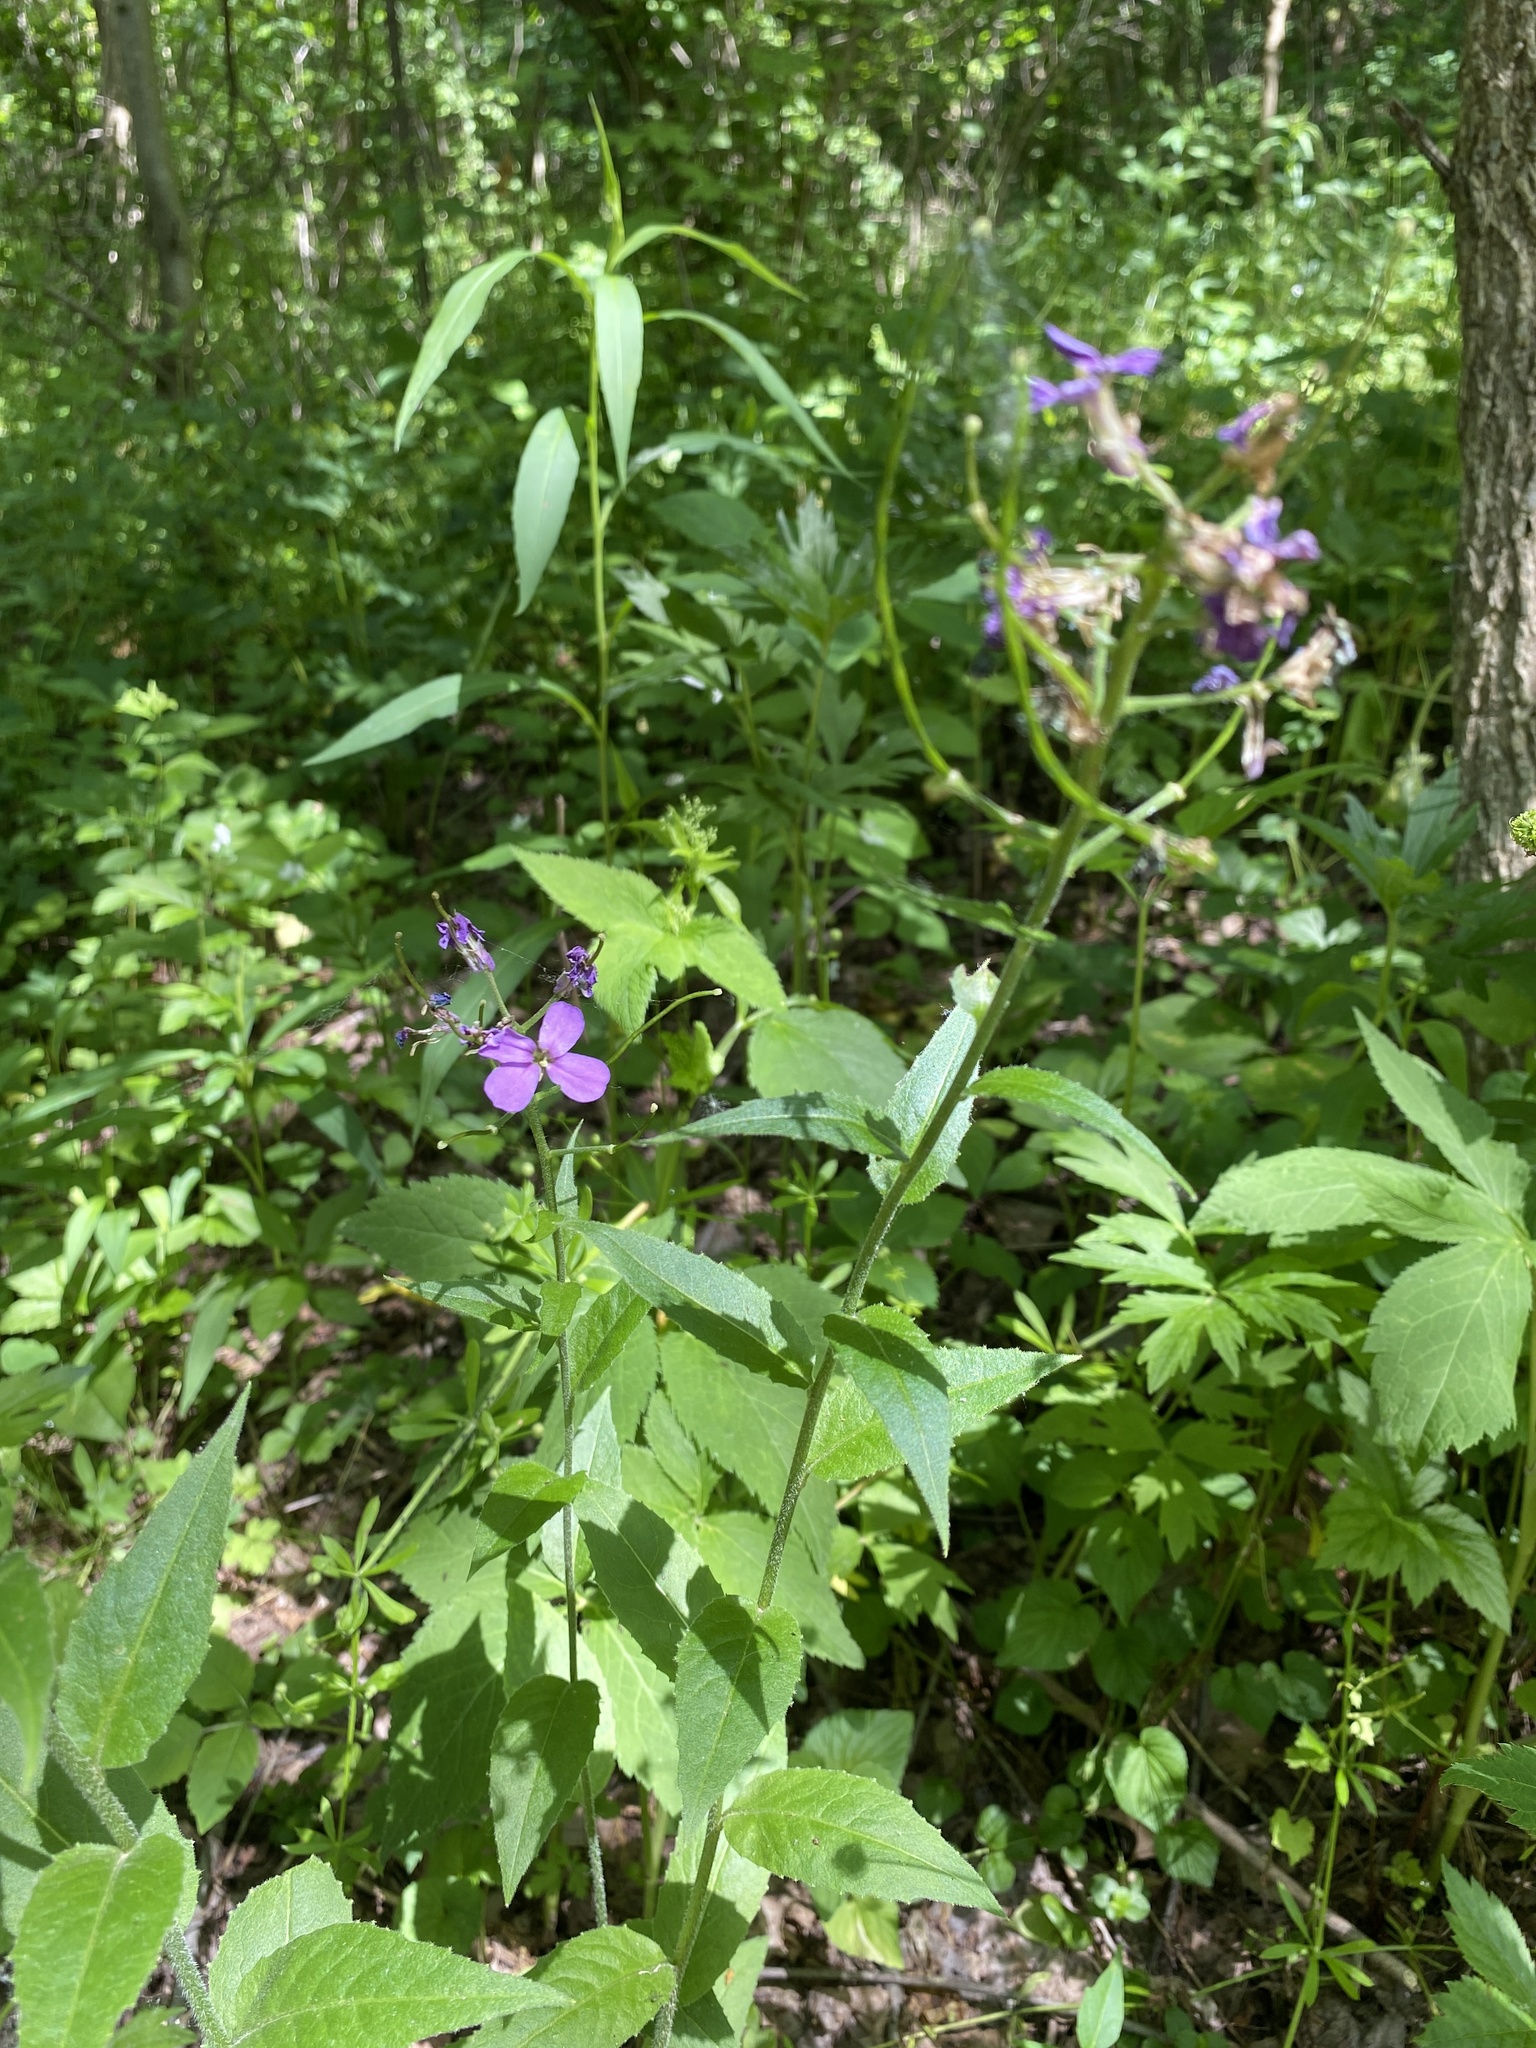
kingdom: Plantae
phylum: Tracheophyta
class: Magnoliopsida
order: Brassicales
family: Brassicaceae
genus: Hesperis
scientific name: Hesperis matronalis
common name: Dame's-violet
